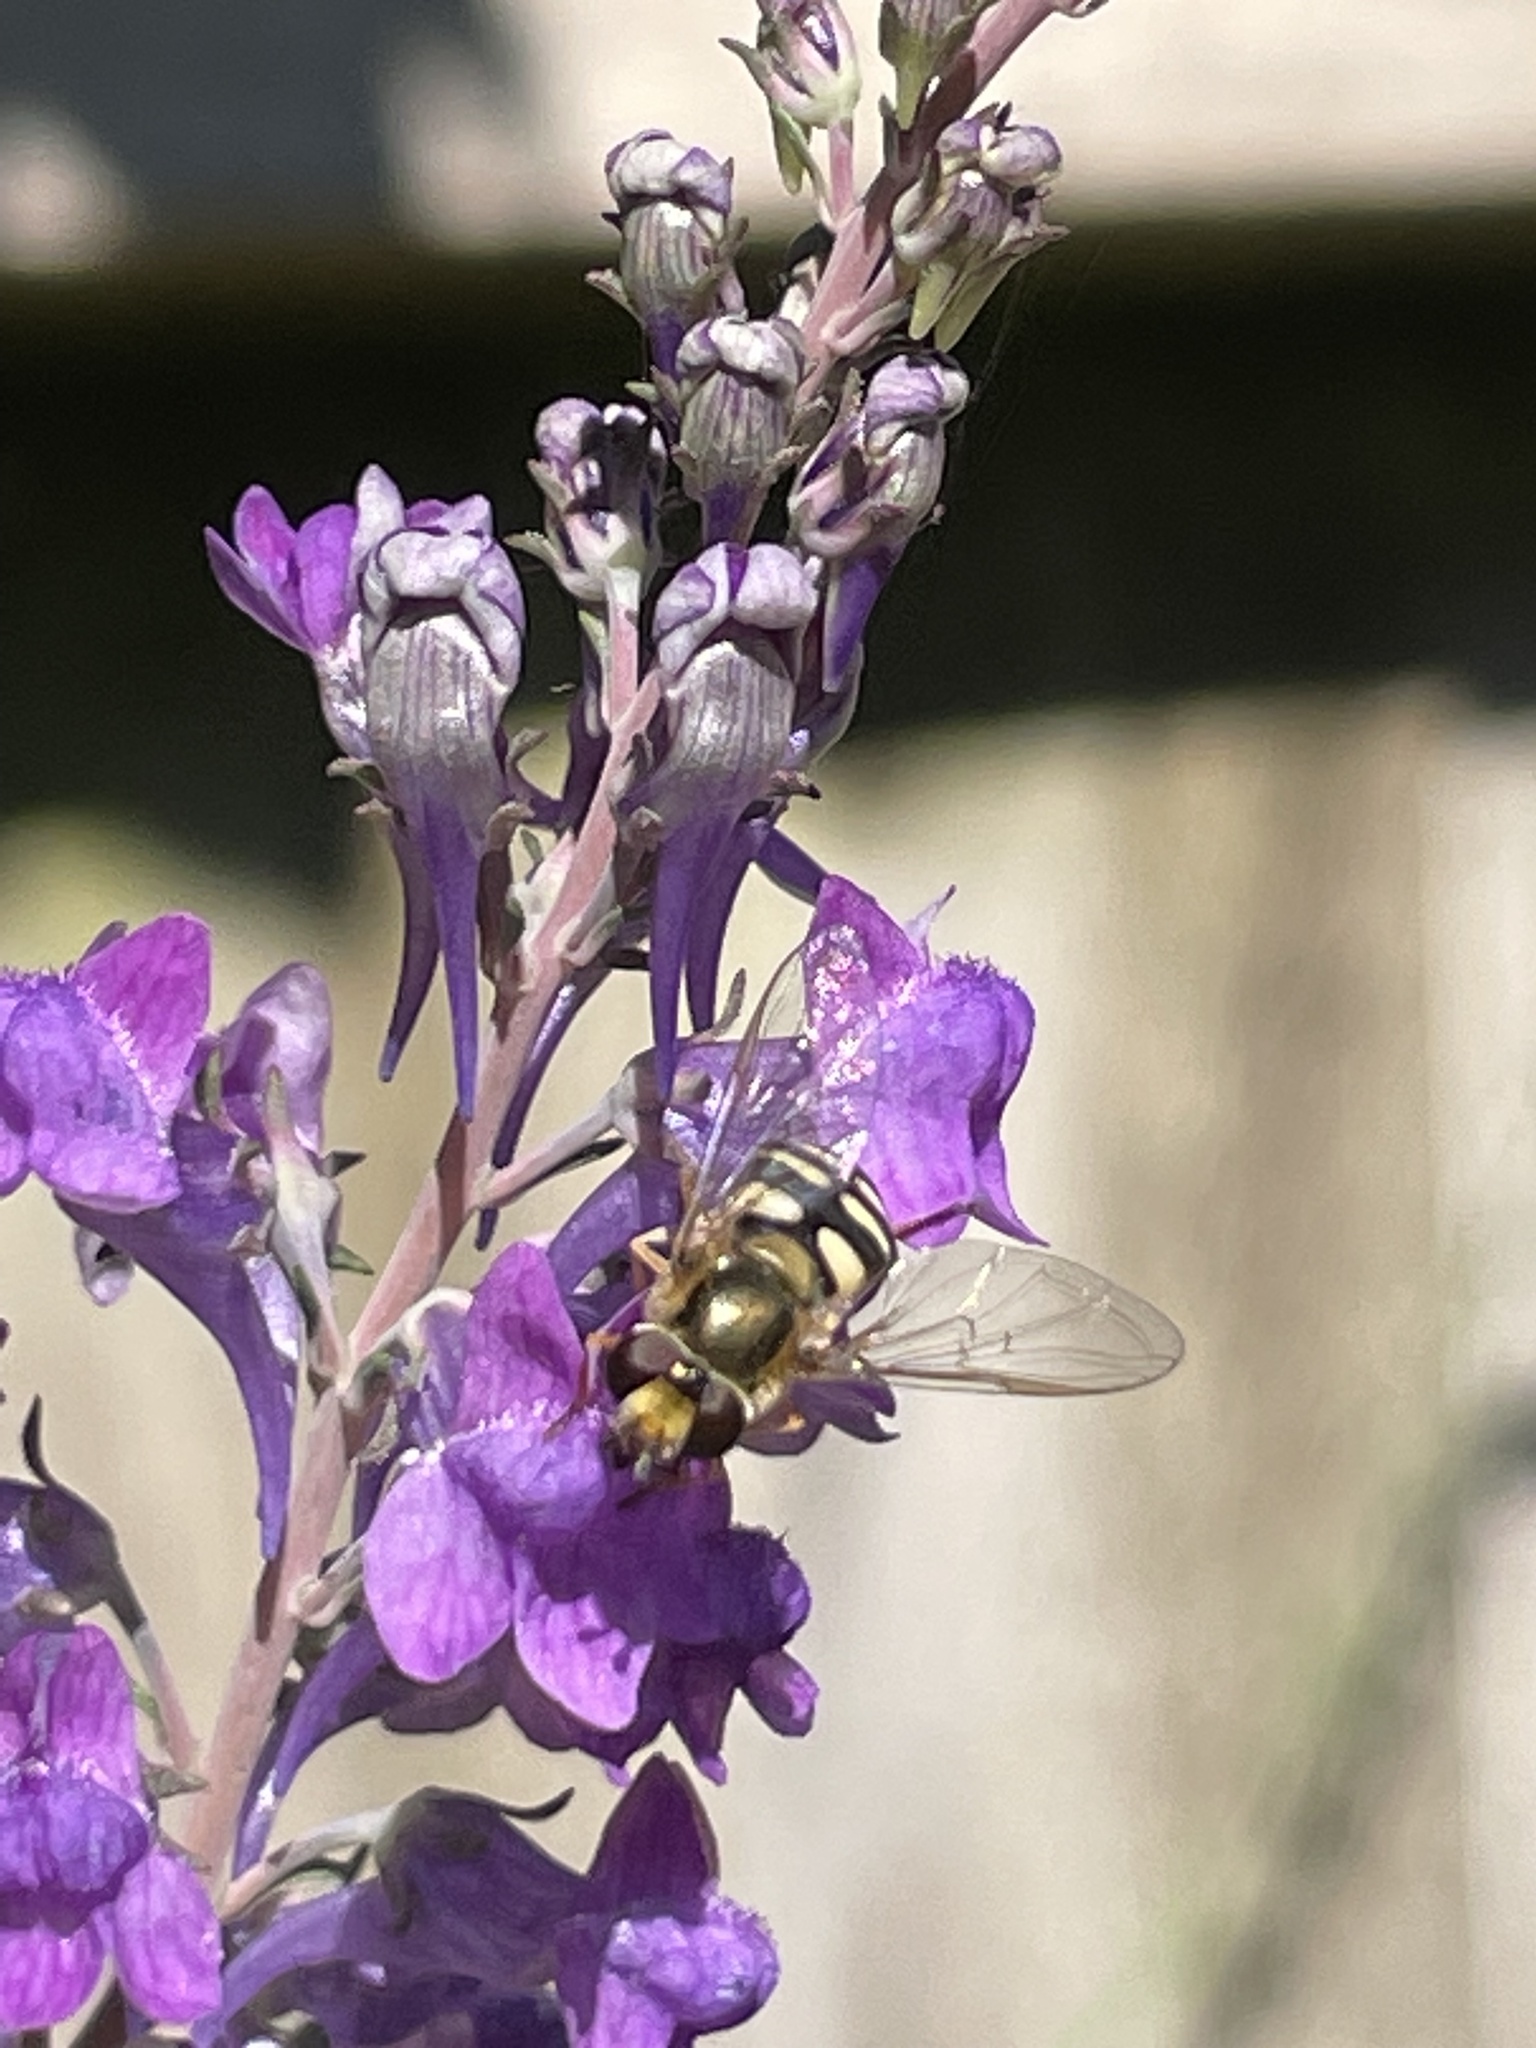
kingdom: Animalia
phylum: Arthropoda
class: Insecta
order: Diptera
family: Syrphidae
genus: Eupeodes
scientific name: Eupeodes corollae
